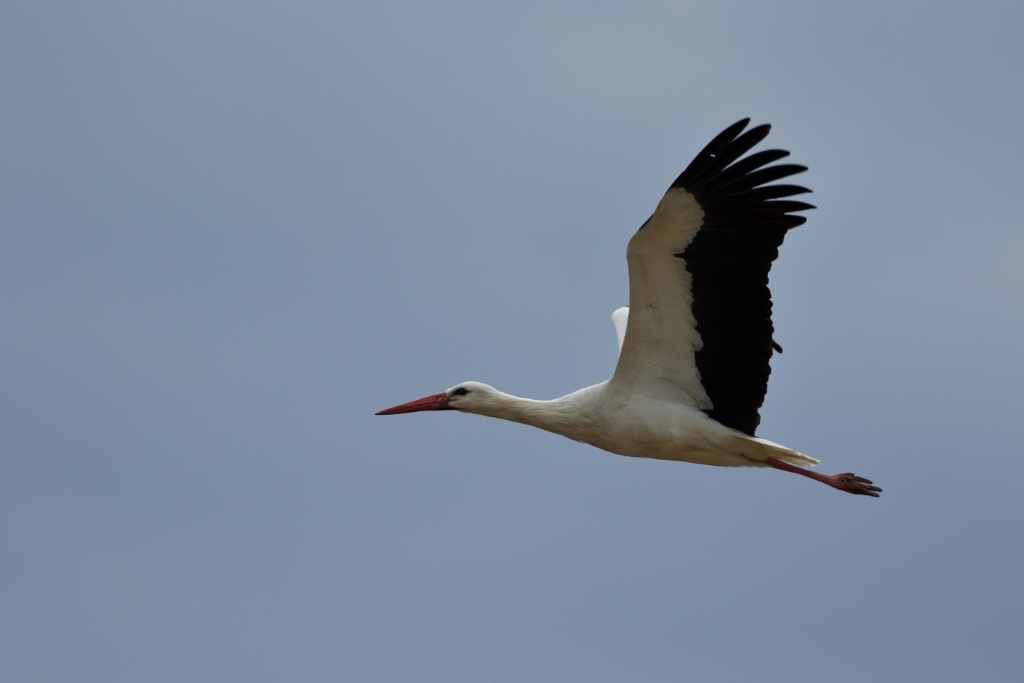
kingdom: Animalia
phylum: Chordata
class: Aves
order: Ciconiiformes
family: Ciconiidae
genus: Ciconia
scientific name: Ciconia ciconia
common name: White stork
